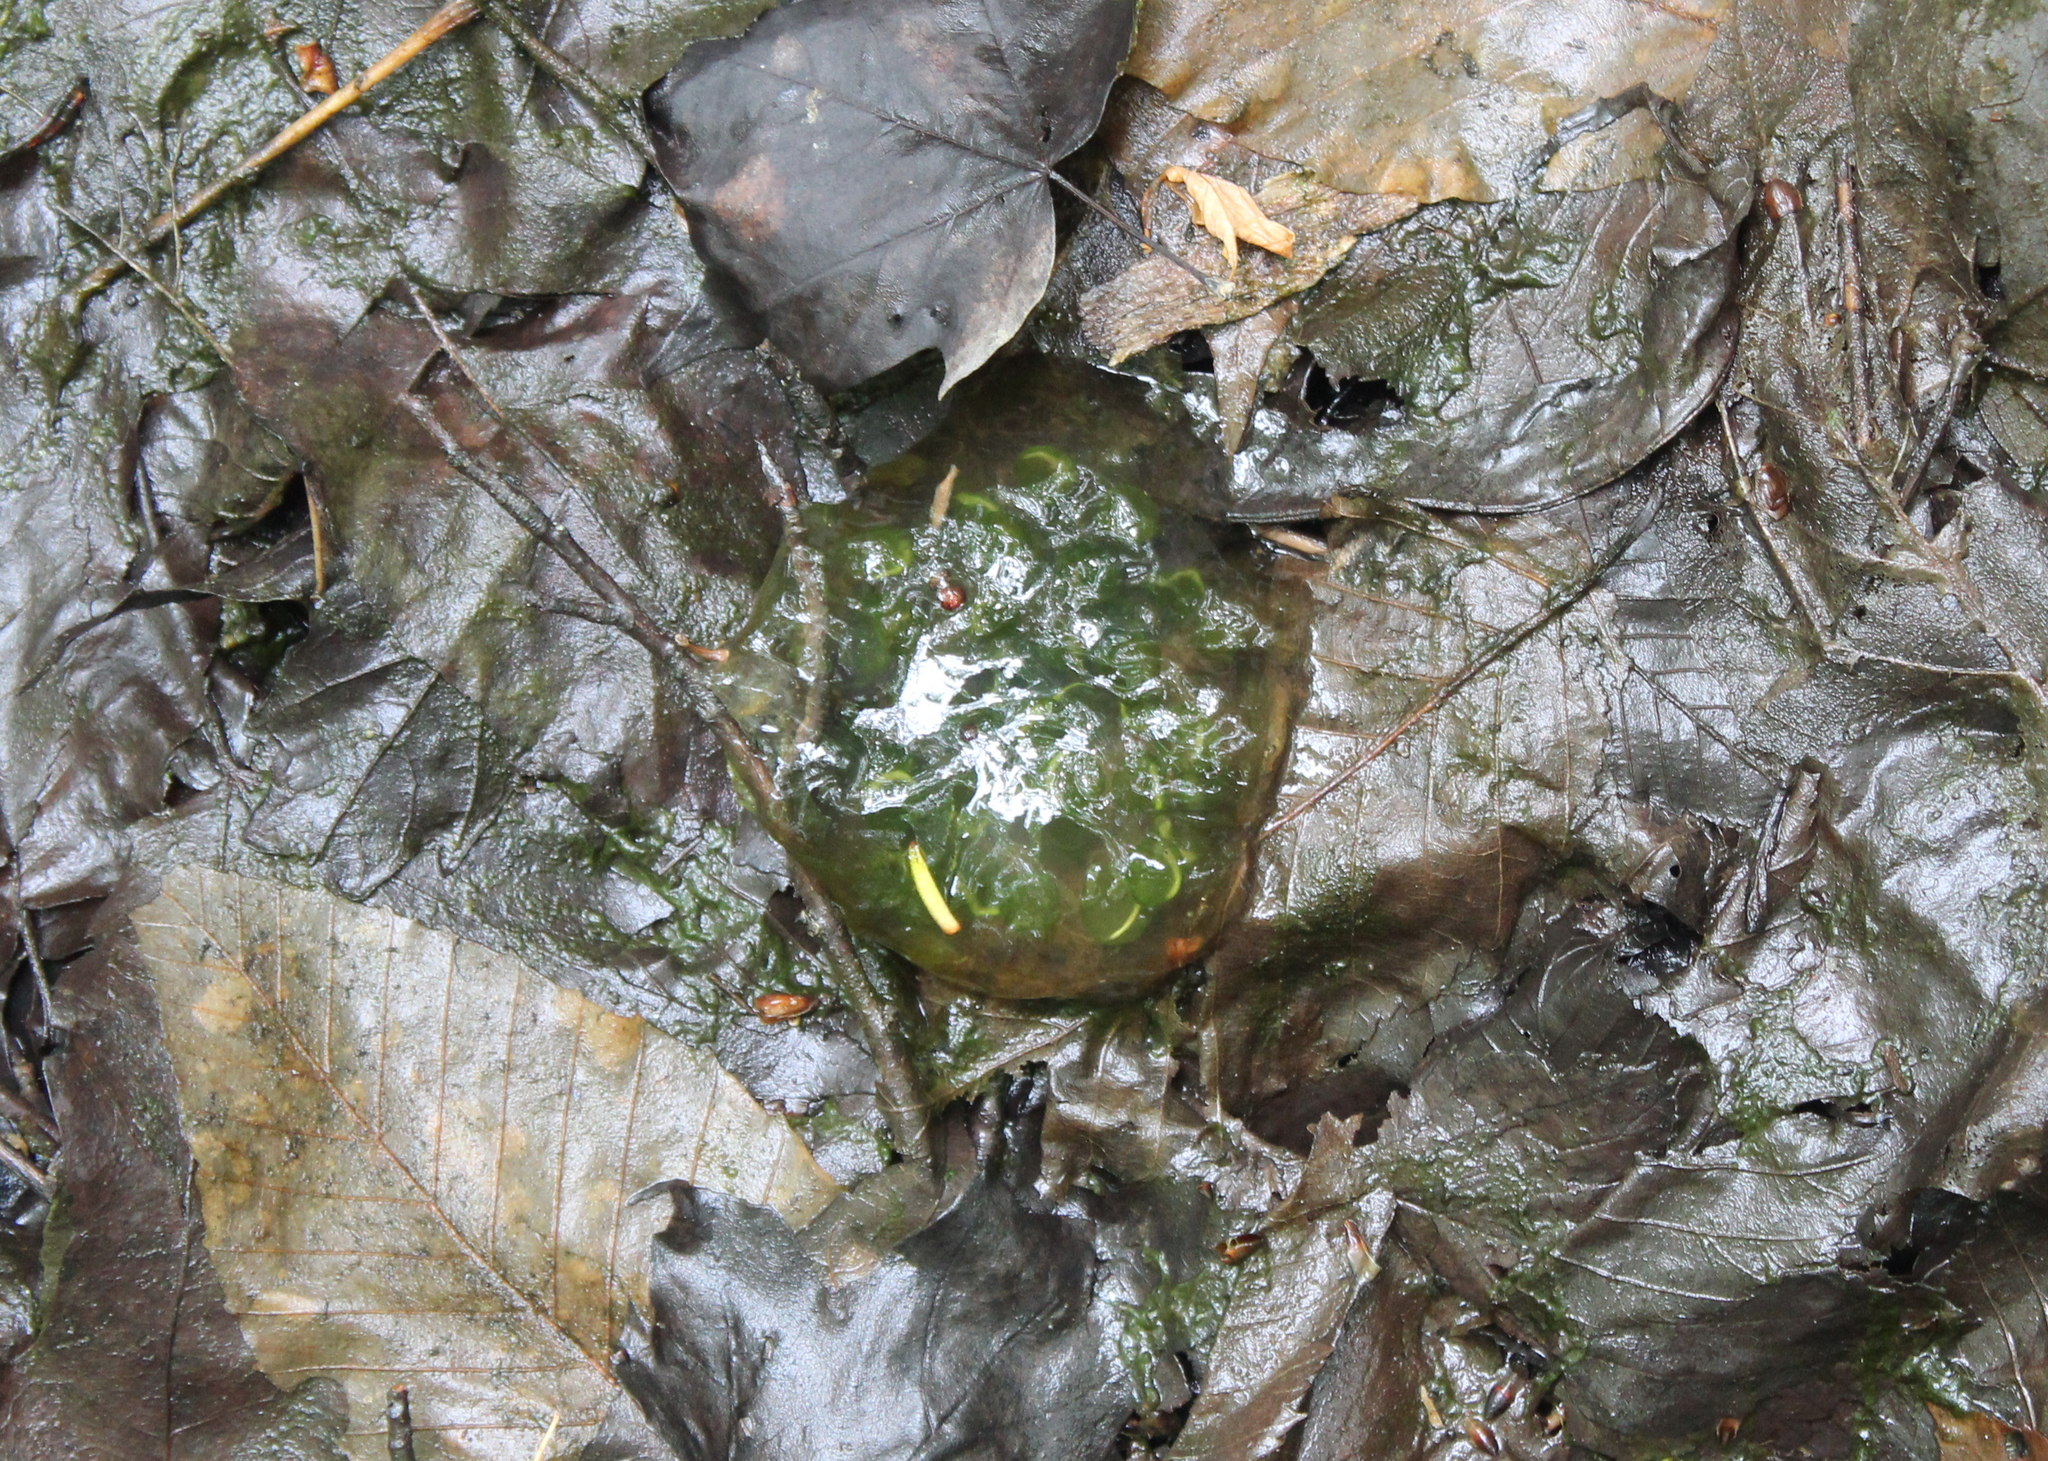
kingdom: Animalia
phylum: Chordata
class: Amphibia
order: Caudata
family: Ambystomatidae
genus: Ambystoma
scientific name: Ambystoma maculatum
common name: Spotted salamander
